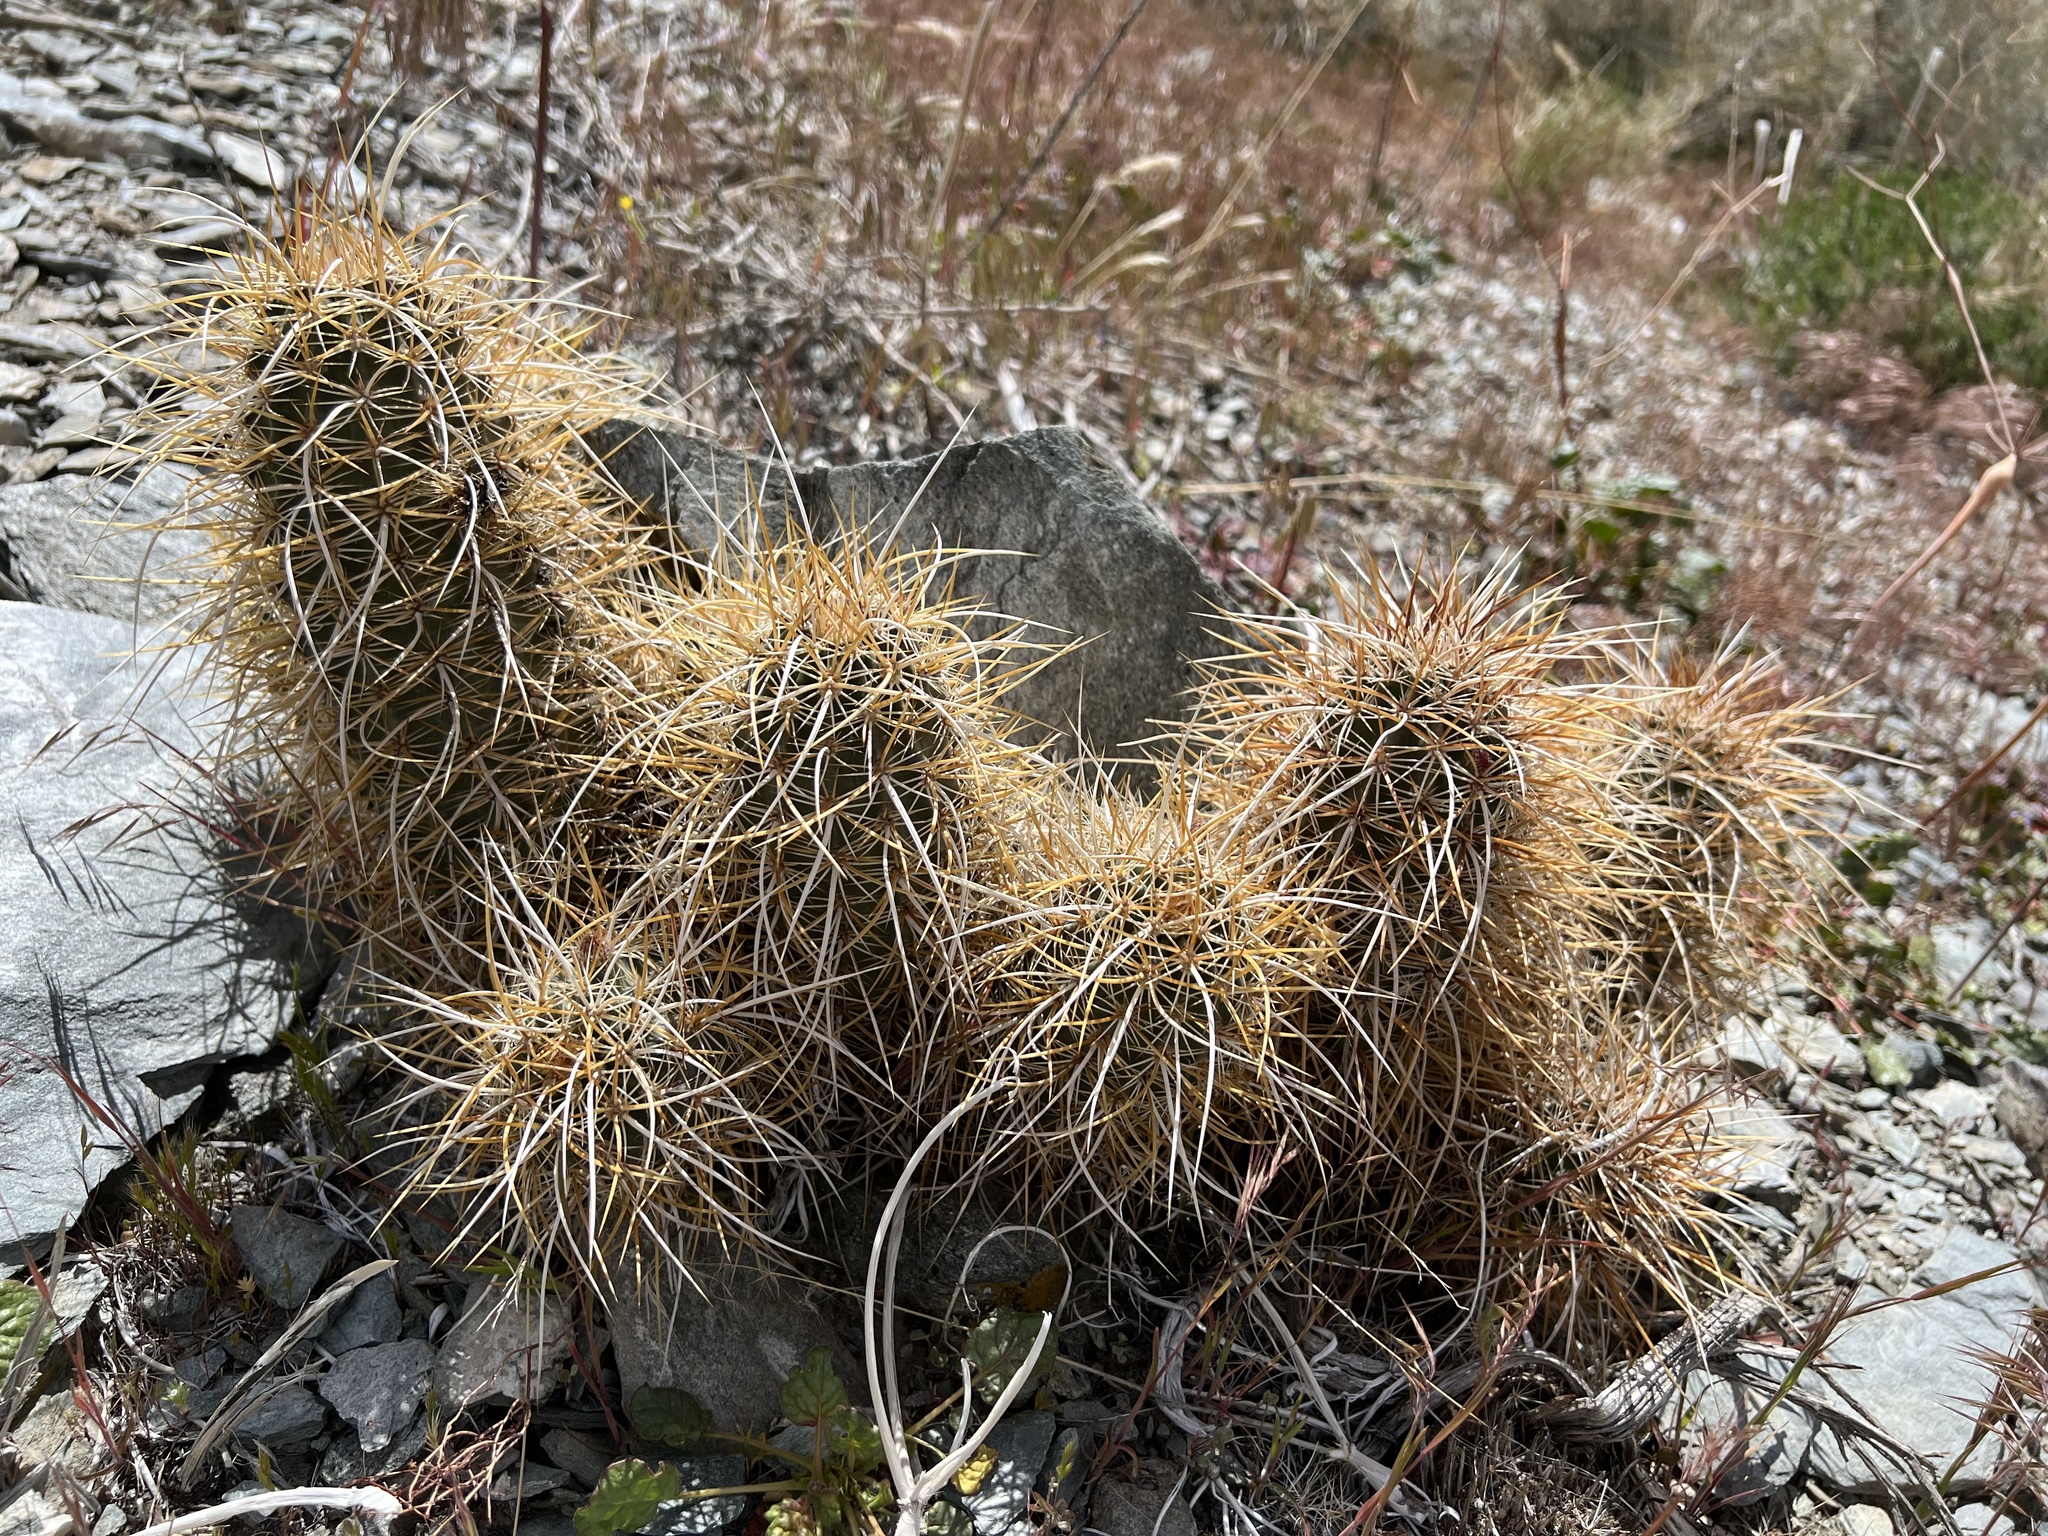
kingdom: Plantae
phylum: Tracheophyta
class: Magnoliopsida
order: Caryophyllales
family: Cactaceae
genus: Echinocereus
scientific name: Echinocereus engelmannii
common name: Engelmann's hedgehog cactus
